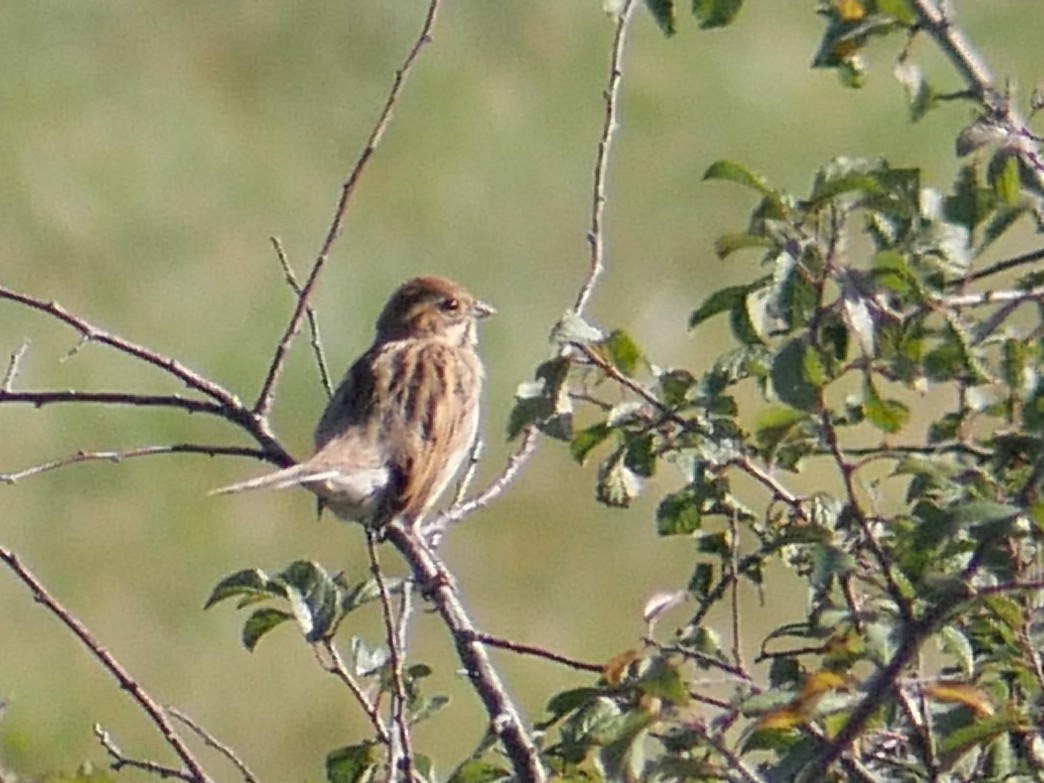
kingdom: Animalia
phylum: Chordata
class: Aves
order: Passeriformes
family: Emberizidae
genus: Emberiza
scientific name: Emberiza schoeniclus
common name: Reed bunting
